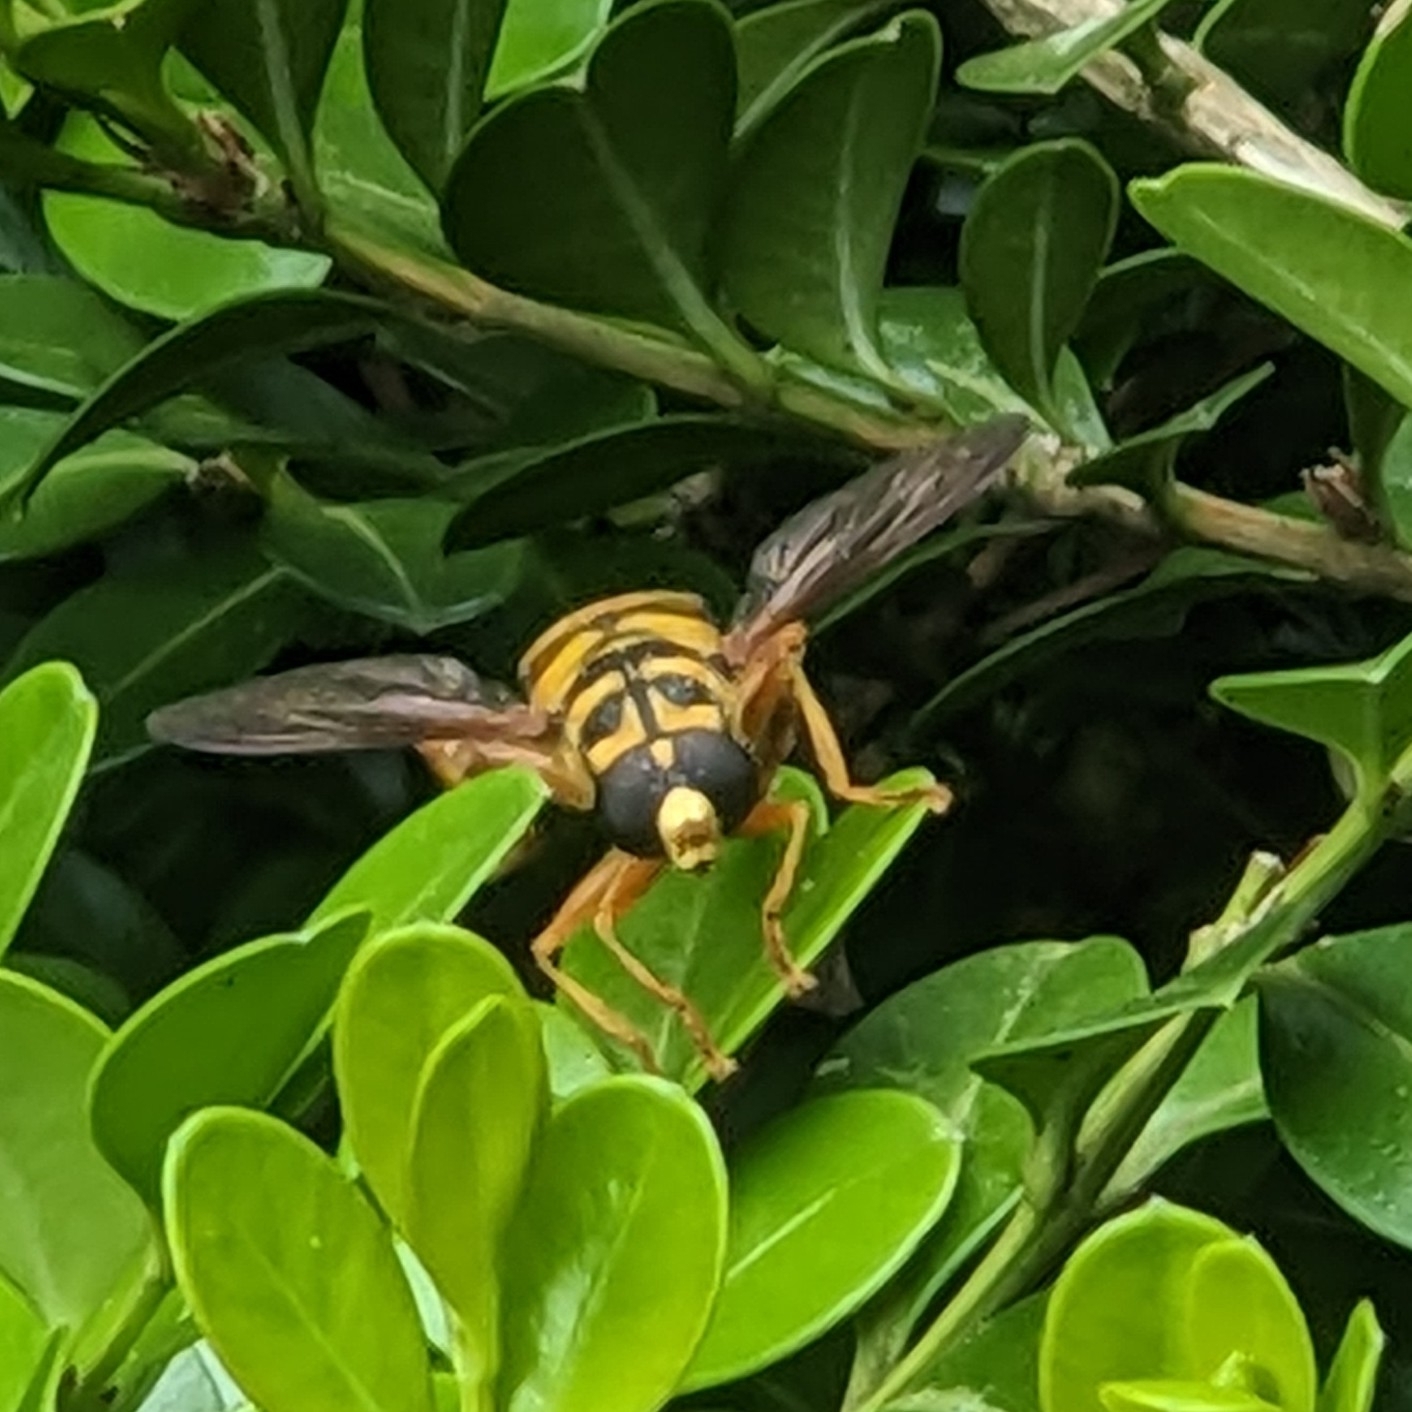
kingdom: Animalia
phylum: Arthropoda
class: Insecta
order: Diptera
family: Syrphidae
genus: Milesia
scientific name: Milesia virginiensis
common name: Virginia giant
